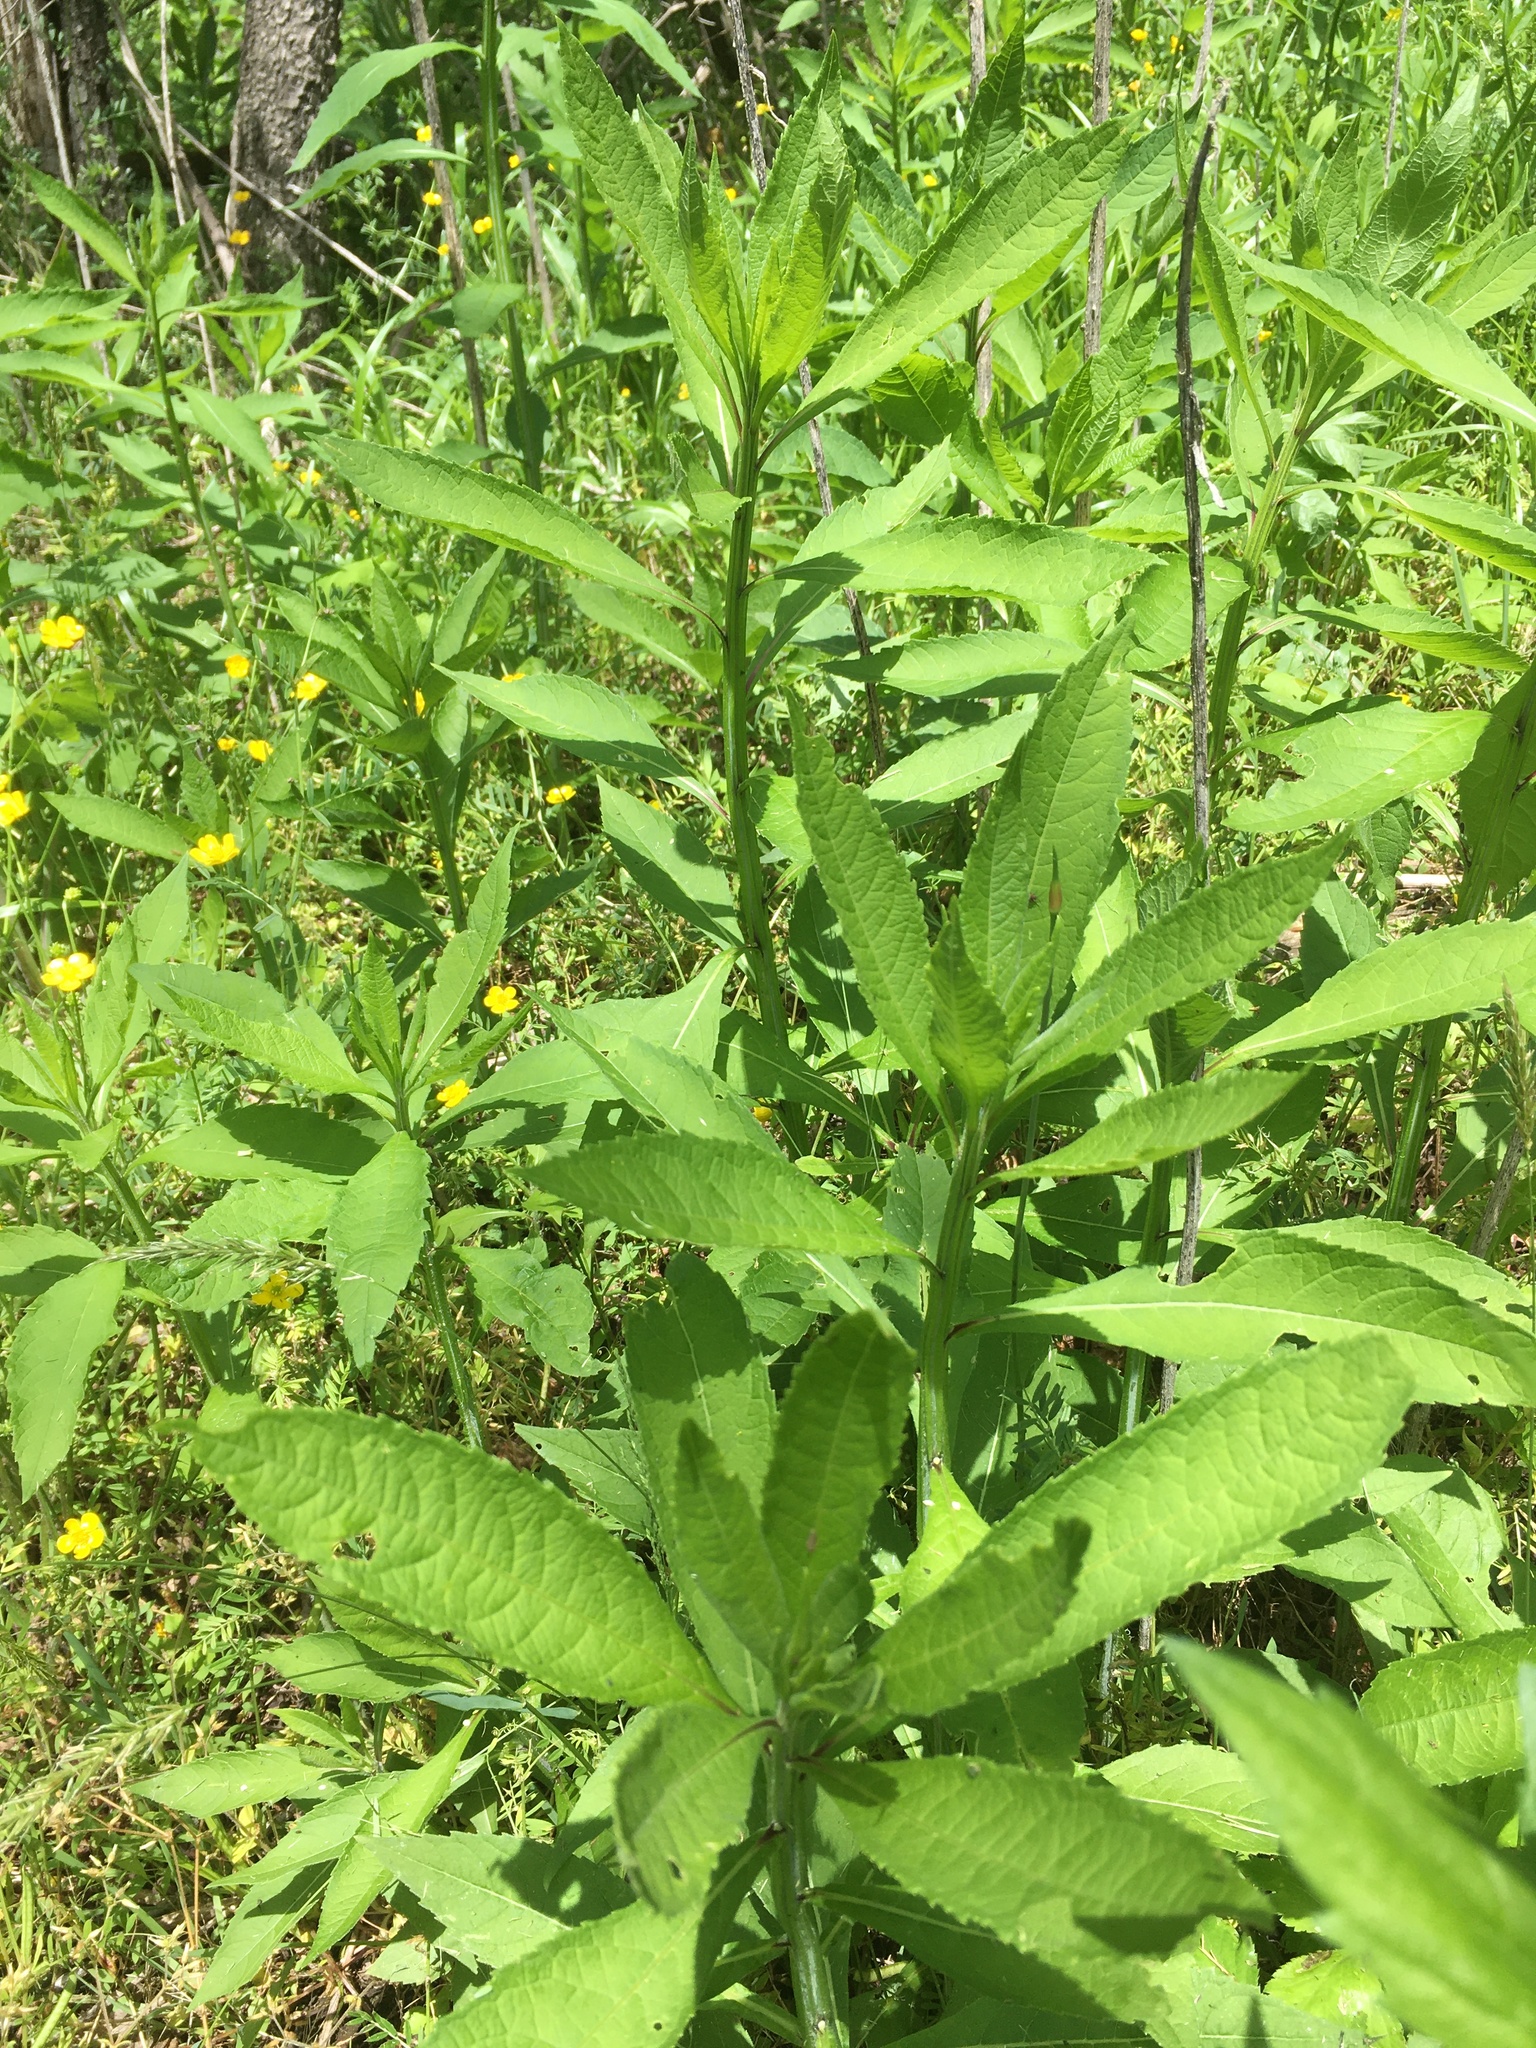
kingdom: Plantae
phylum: Tracheophyta
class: Magnoliopsida
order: Asterales
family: Asteraceae
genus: Verbesina
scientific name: Verbesina alternifolia
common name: Wingstem
